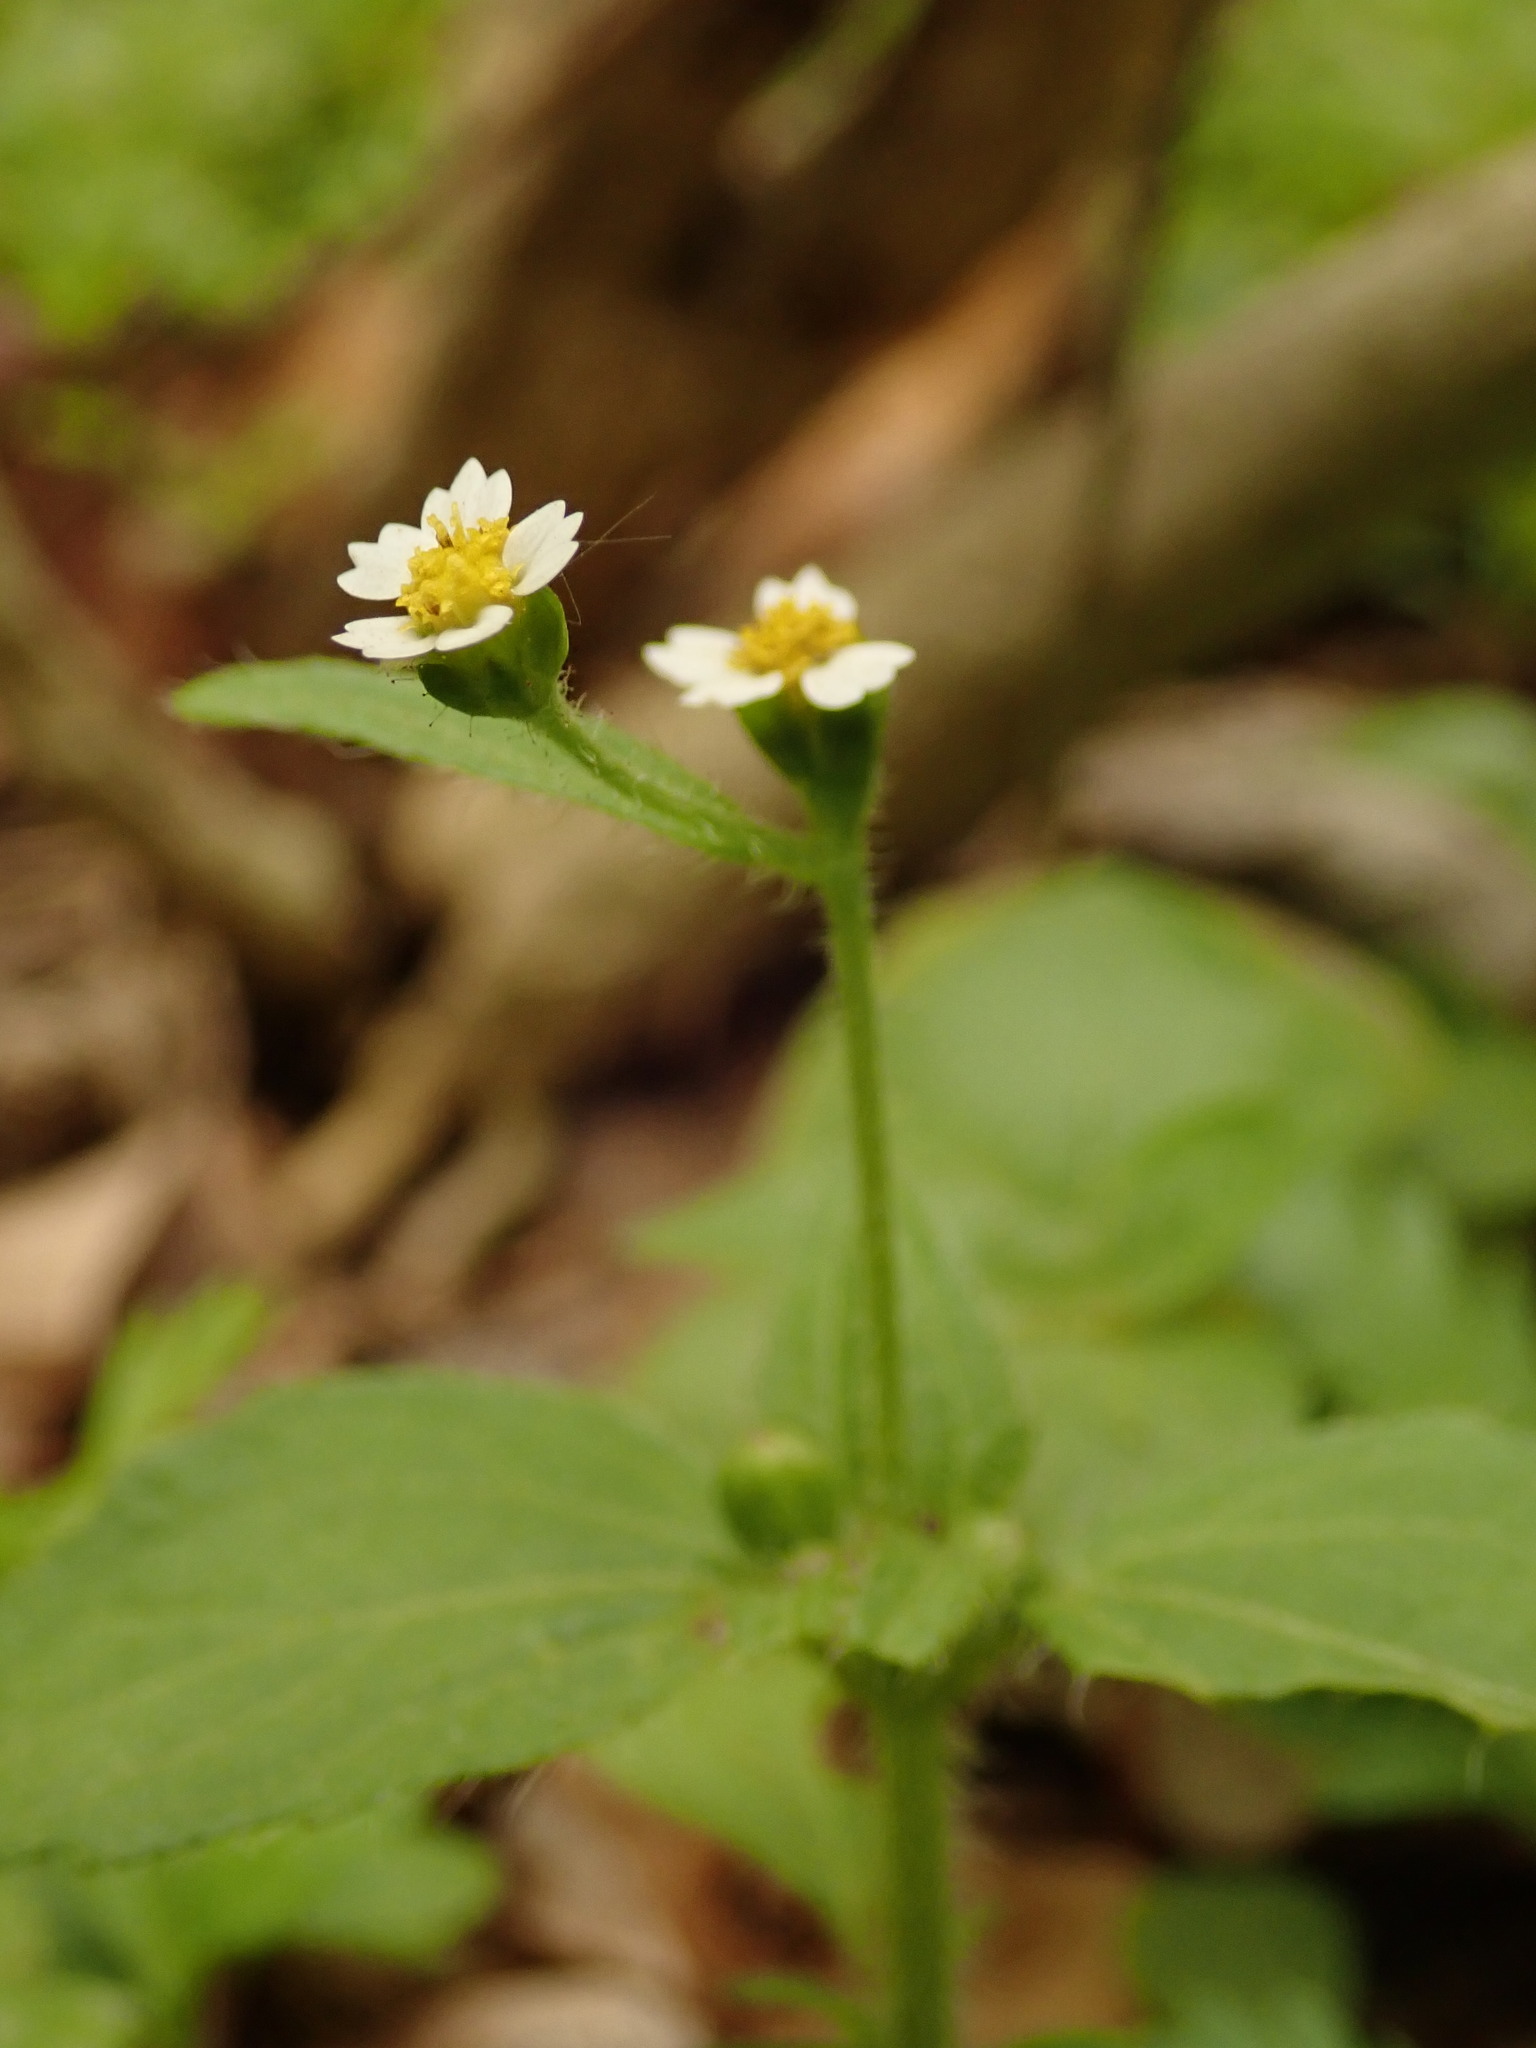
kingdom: Plantae
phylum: Tracheophyta
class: Magnoliopsida
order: Asterales
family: Asteraceae
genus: Galinsoga
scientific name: Galinsoga parviflora
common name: Gallant soldier
